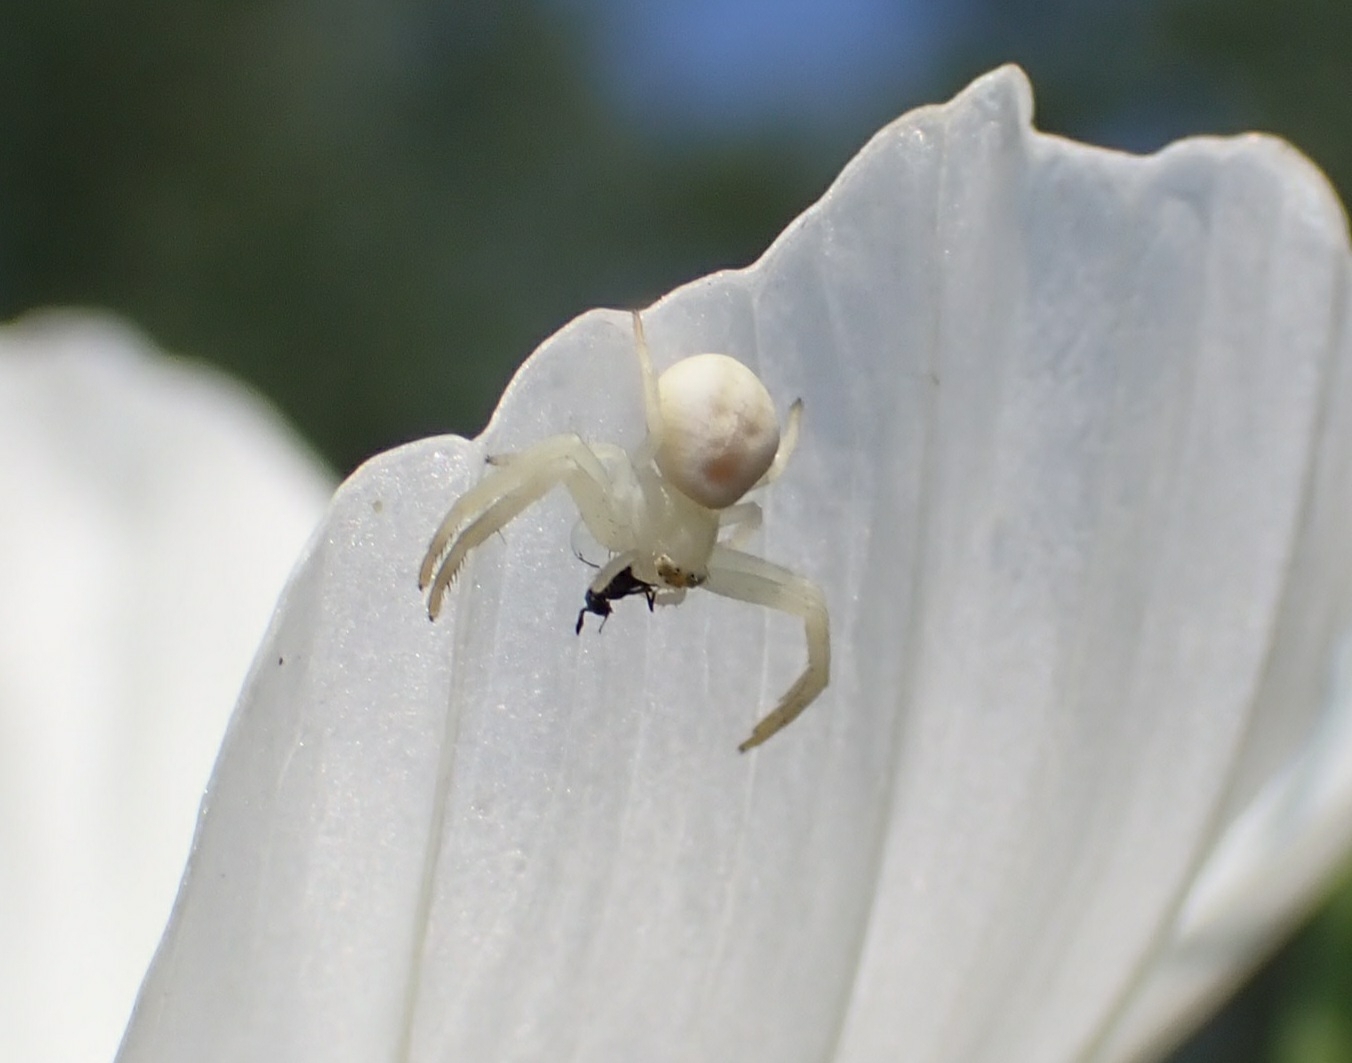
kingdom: Animalia
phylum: Arthropoda
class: Arachnida
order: Araneae
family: Thomisidae
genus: Misumena
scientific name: Misumena vatia
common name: Goldenrod crab spider
